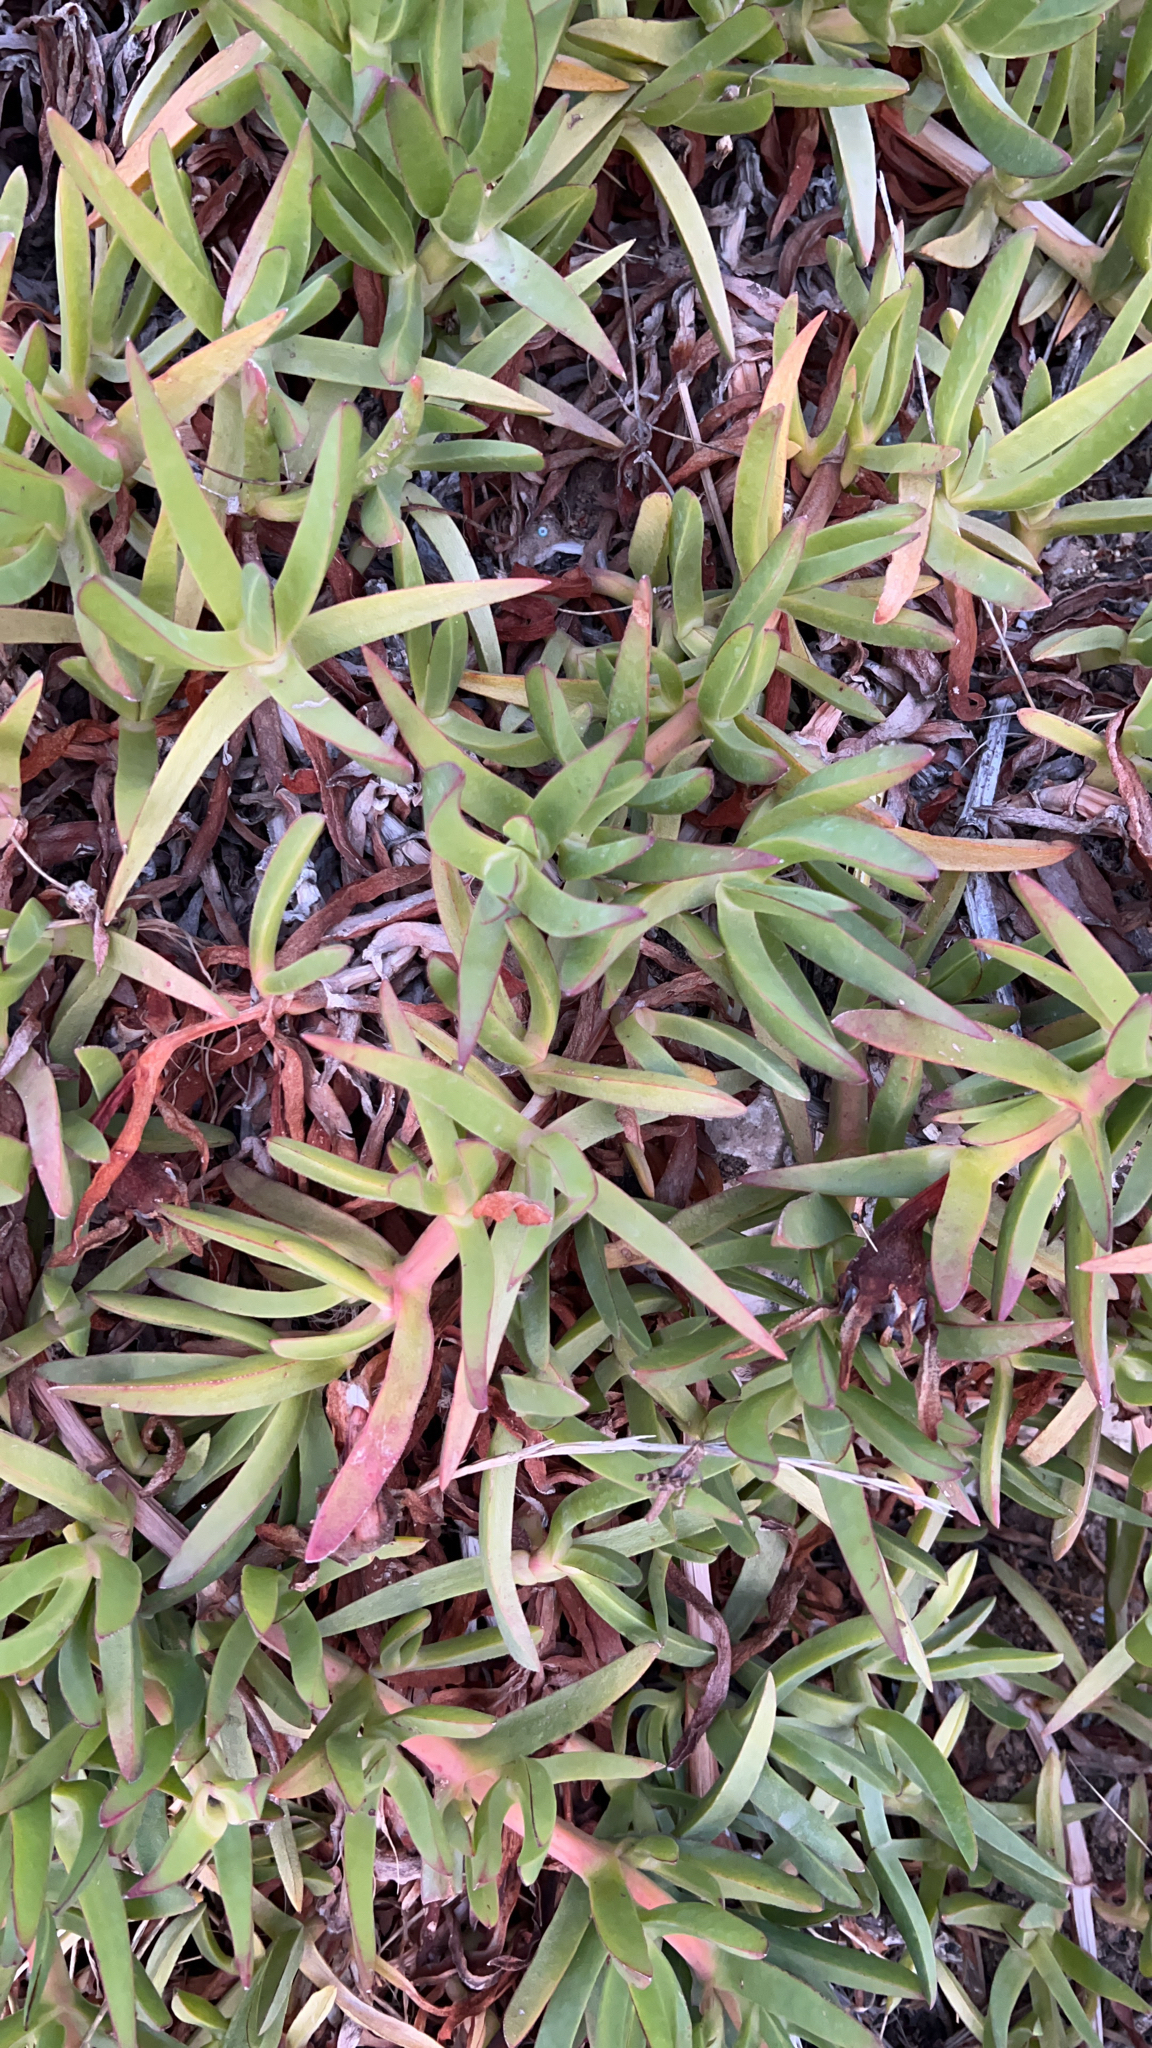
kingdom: Plantae
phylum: Tracheophyta
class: Magnoliopsida
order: Caryophyllales
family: Aizoaceae
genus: Carpobrotus
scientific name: Carpobrotus edulis
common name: Hottentot-fig
